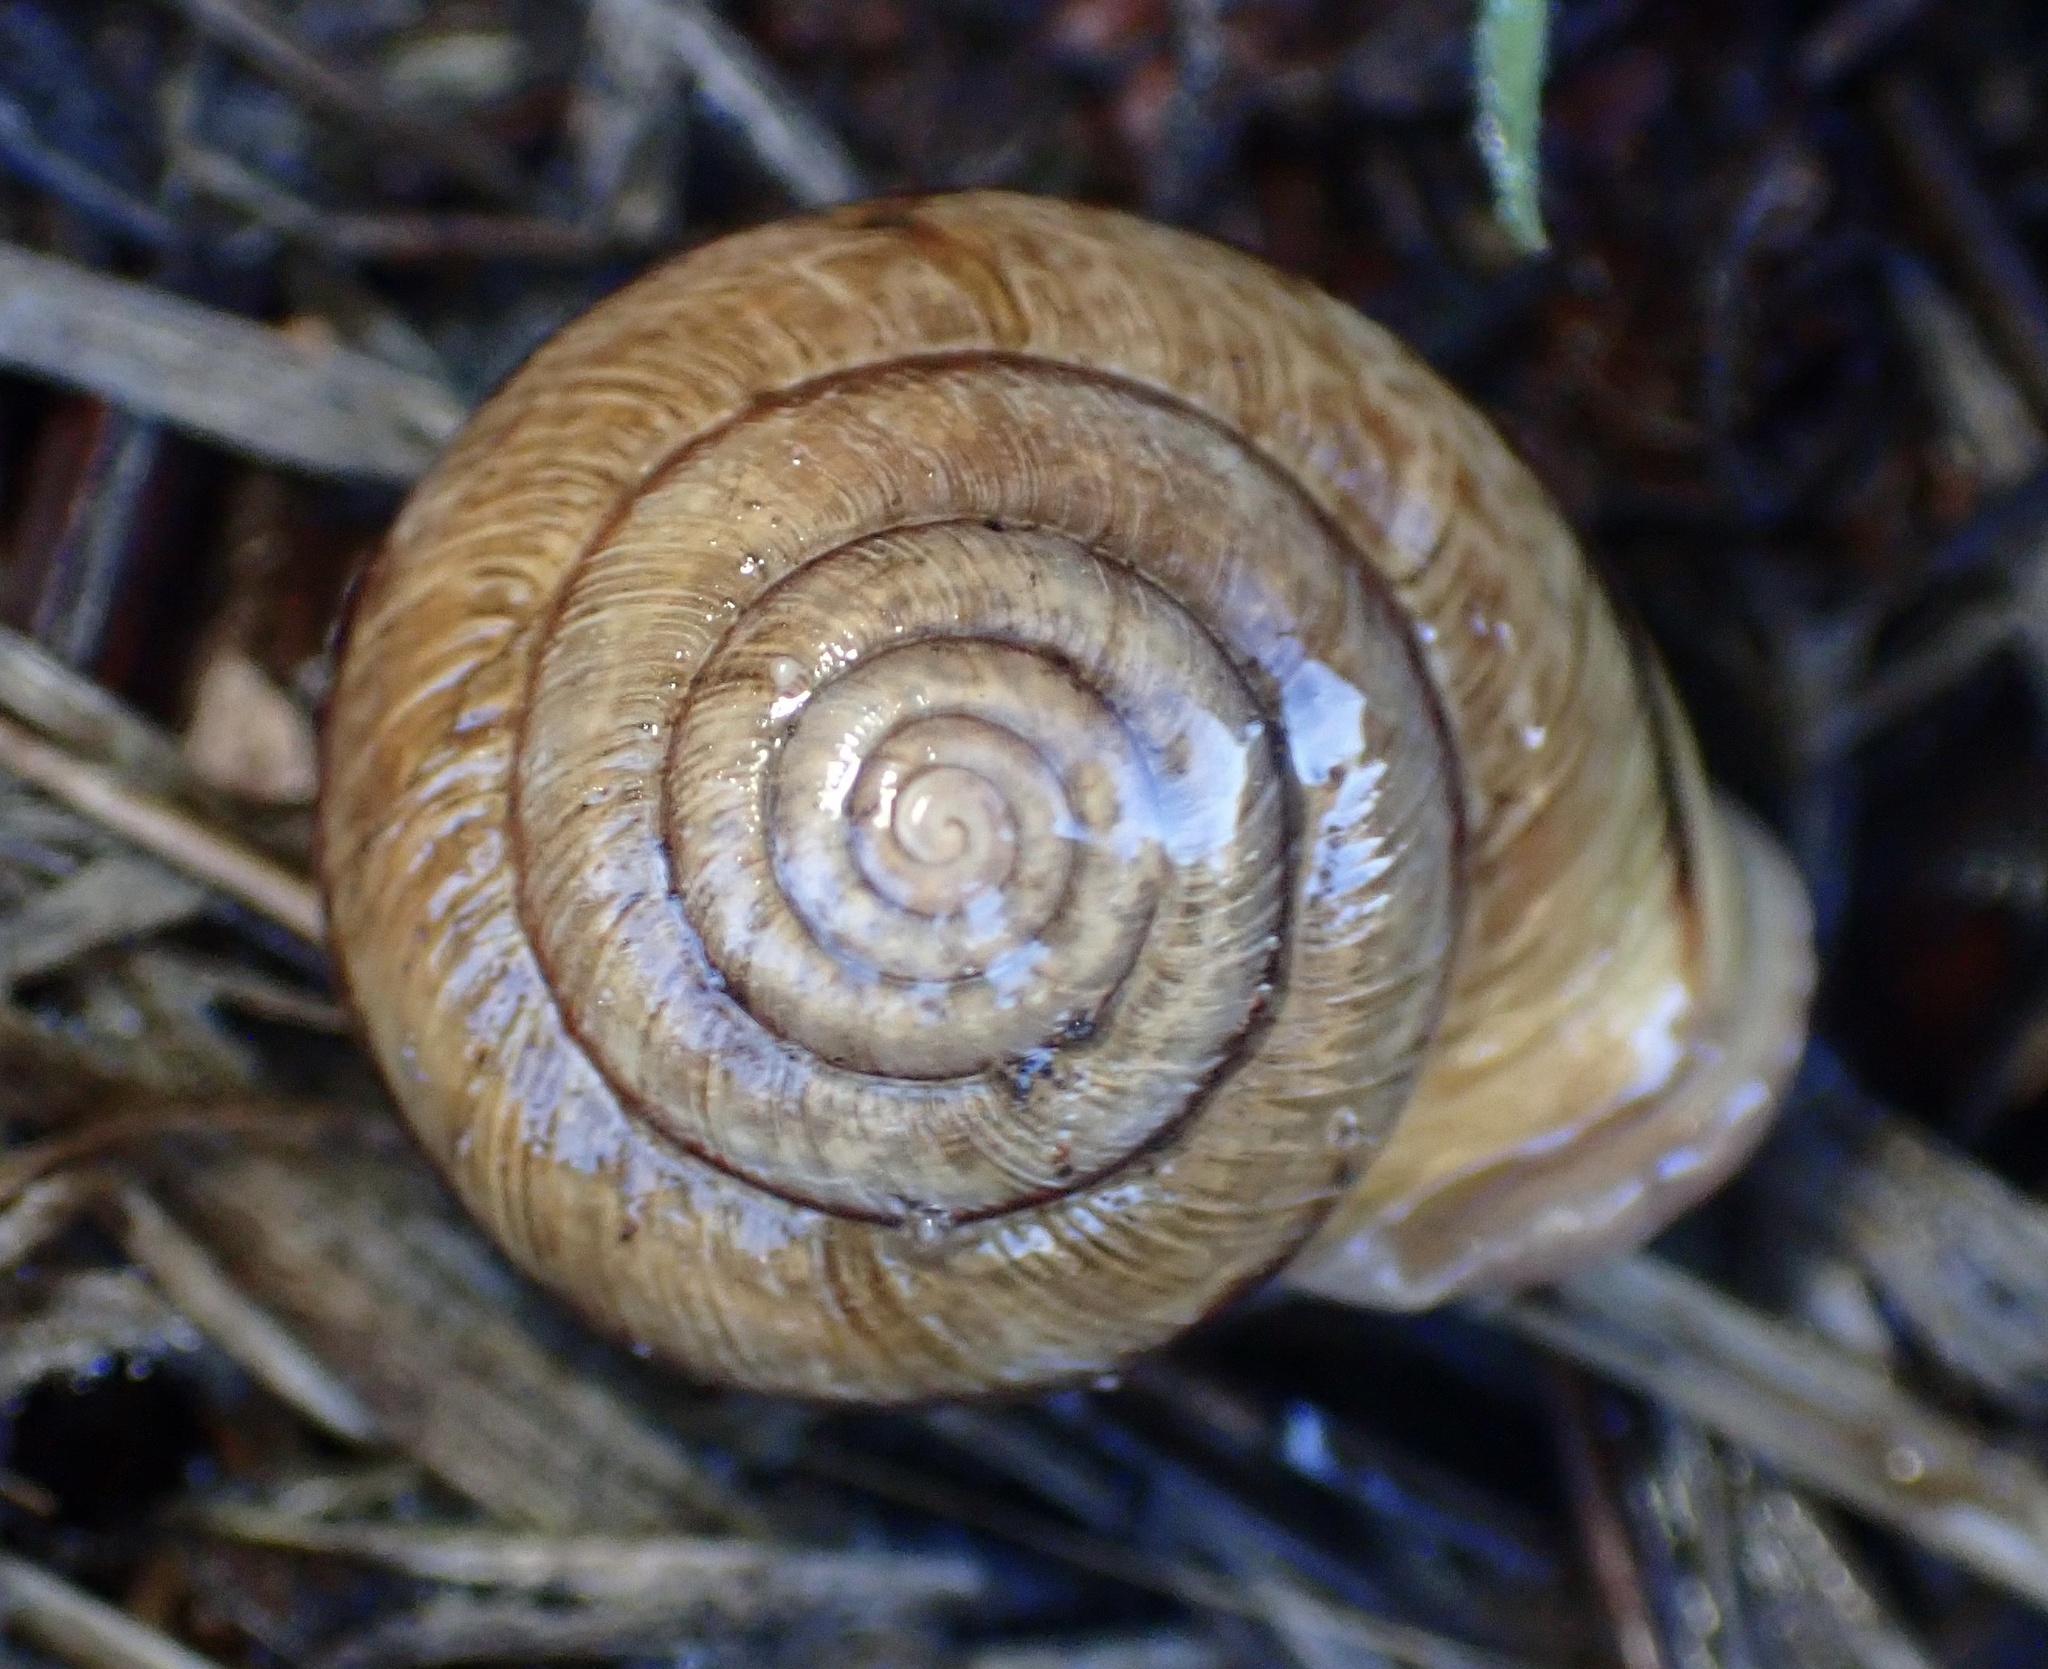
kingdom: Animalia
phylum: Mollusca
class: Gastropoda
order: Stylommatophora
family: Xanthonychidae
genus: Helminthoglypta
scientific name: Helminthoglypta stiversiana
